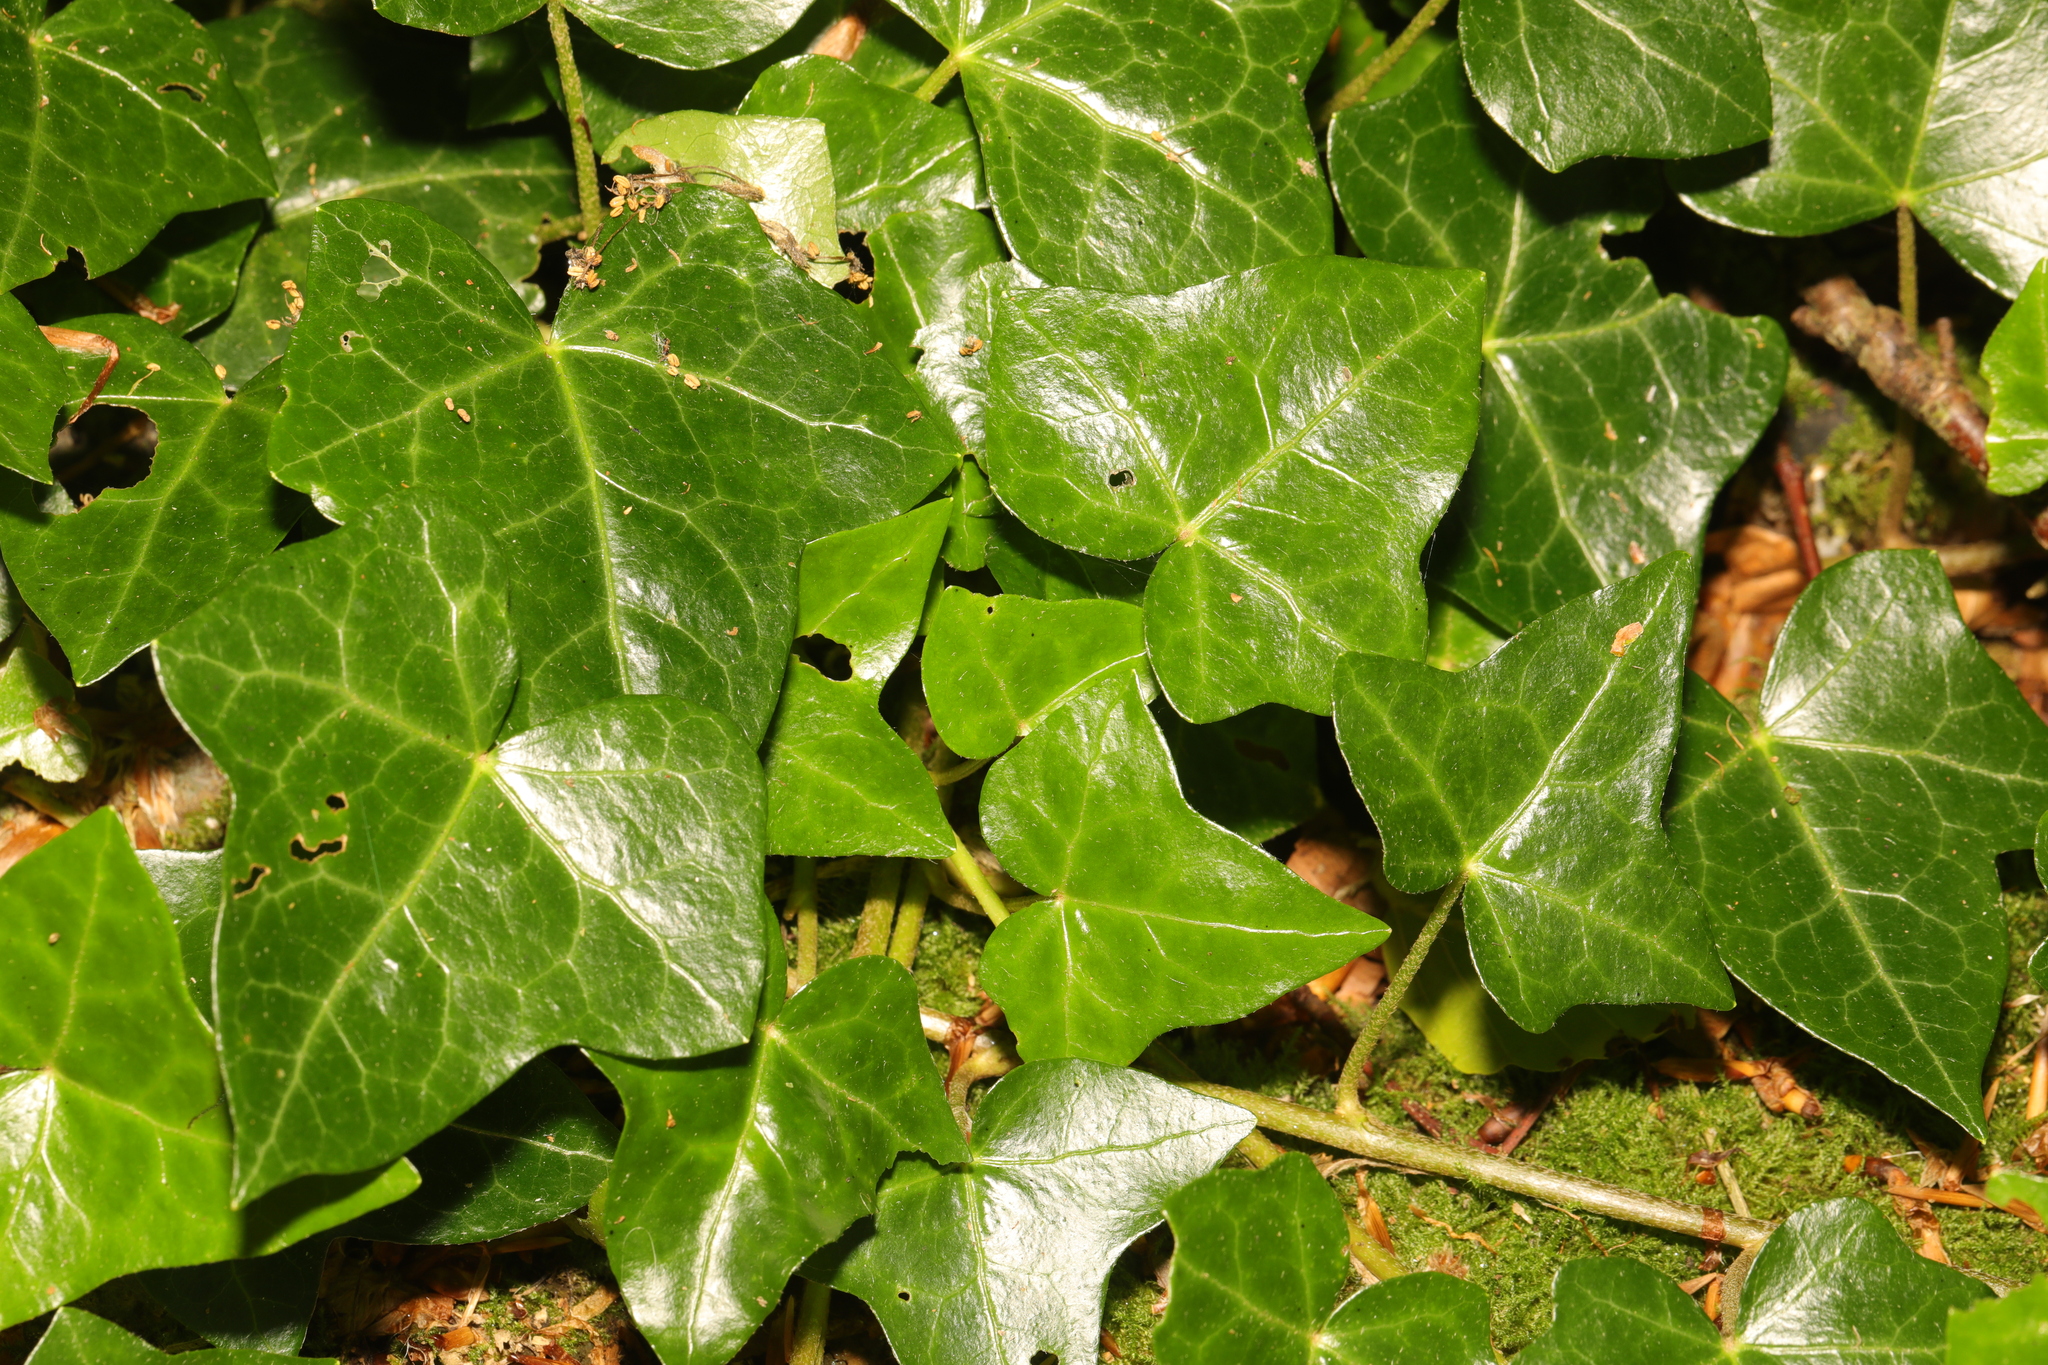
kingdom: Plantae
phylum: Tracheophyta
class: Magnoliopsida
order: Apiales
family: Araliaceae
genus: Hedera
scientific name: Hedera helix
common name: Ivy
